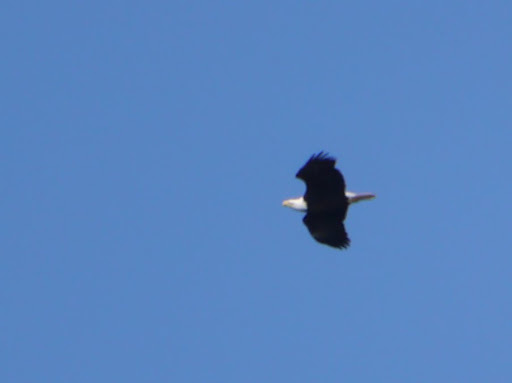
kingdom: Animalia
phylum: Chordata
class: Aves
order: Accipitriformes
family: Accipitridae
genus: Haliaeetus
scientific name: Haliaeetus leucocephalus
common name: Bald eagle
